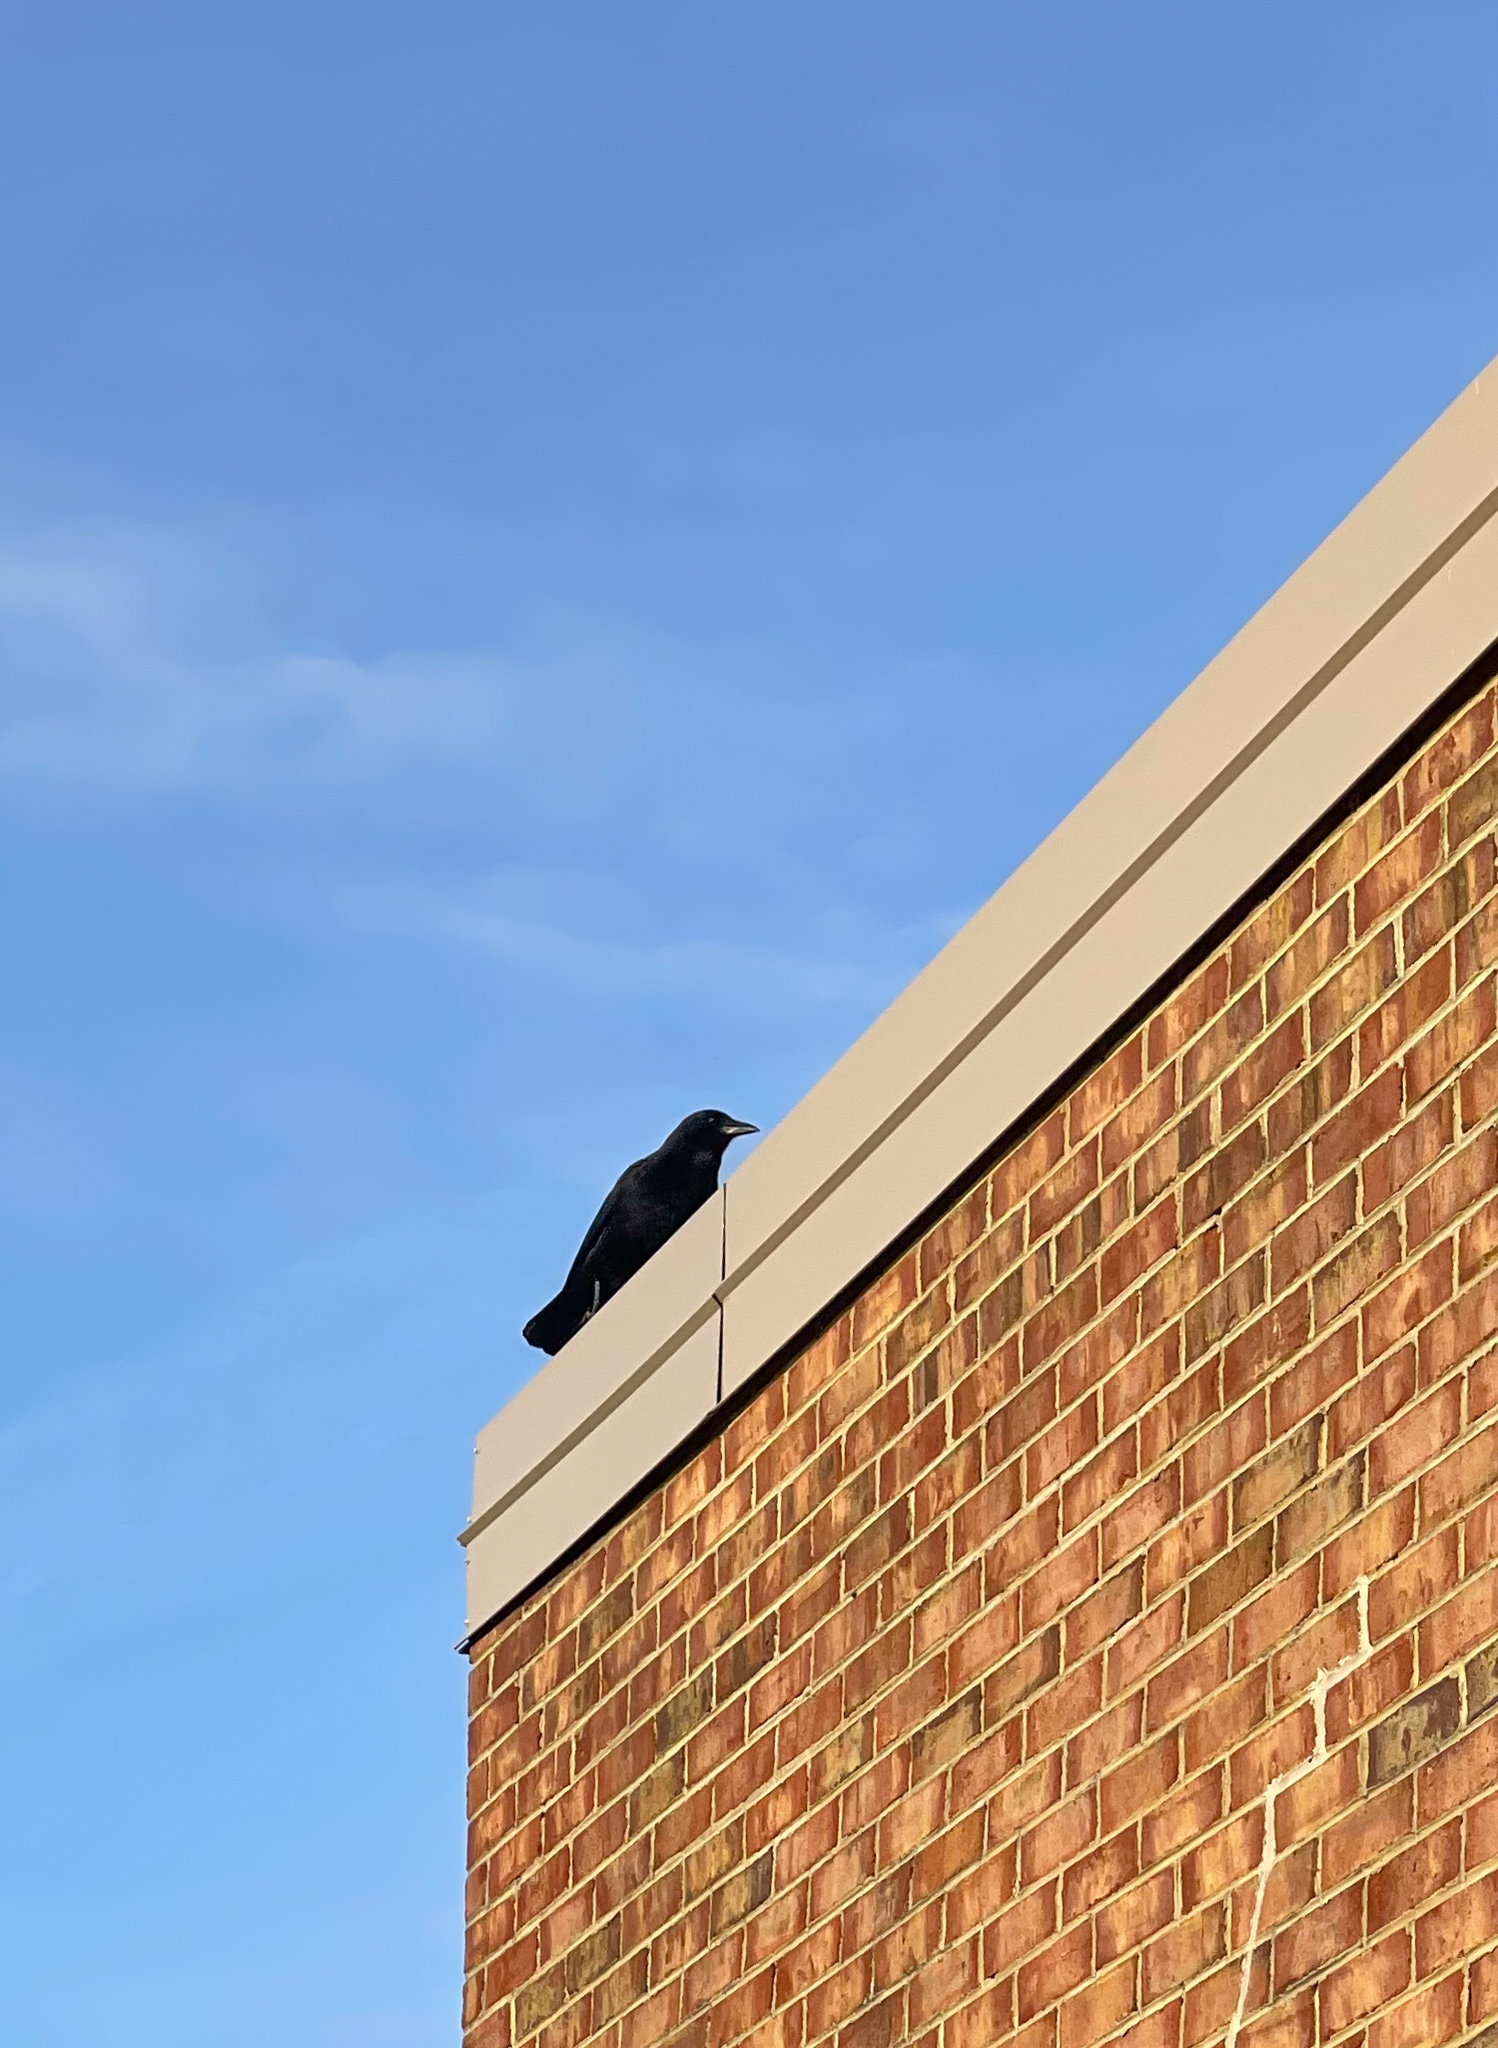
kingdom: Animalia
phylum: Chordata
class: Aves
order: Passeriformes
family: Corvidae
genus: Corvus
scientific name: Corvus brachyrhynchos
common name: American crow
